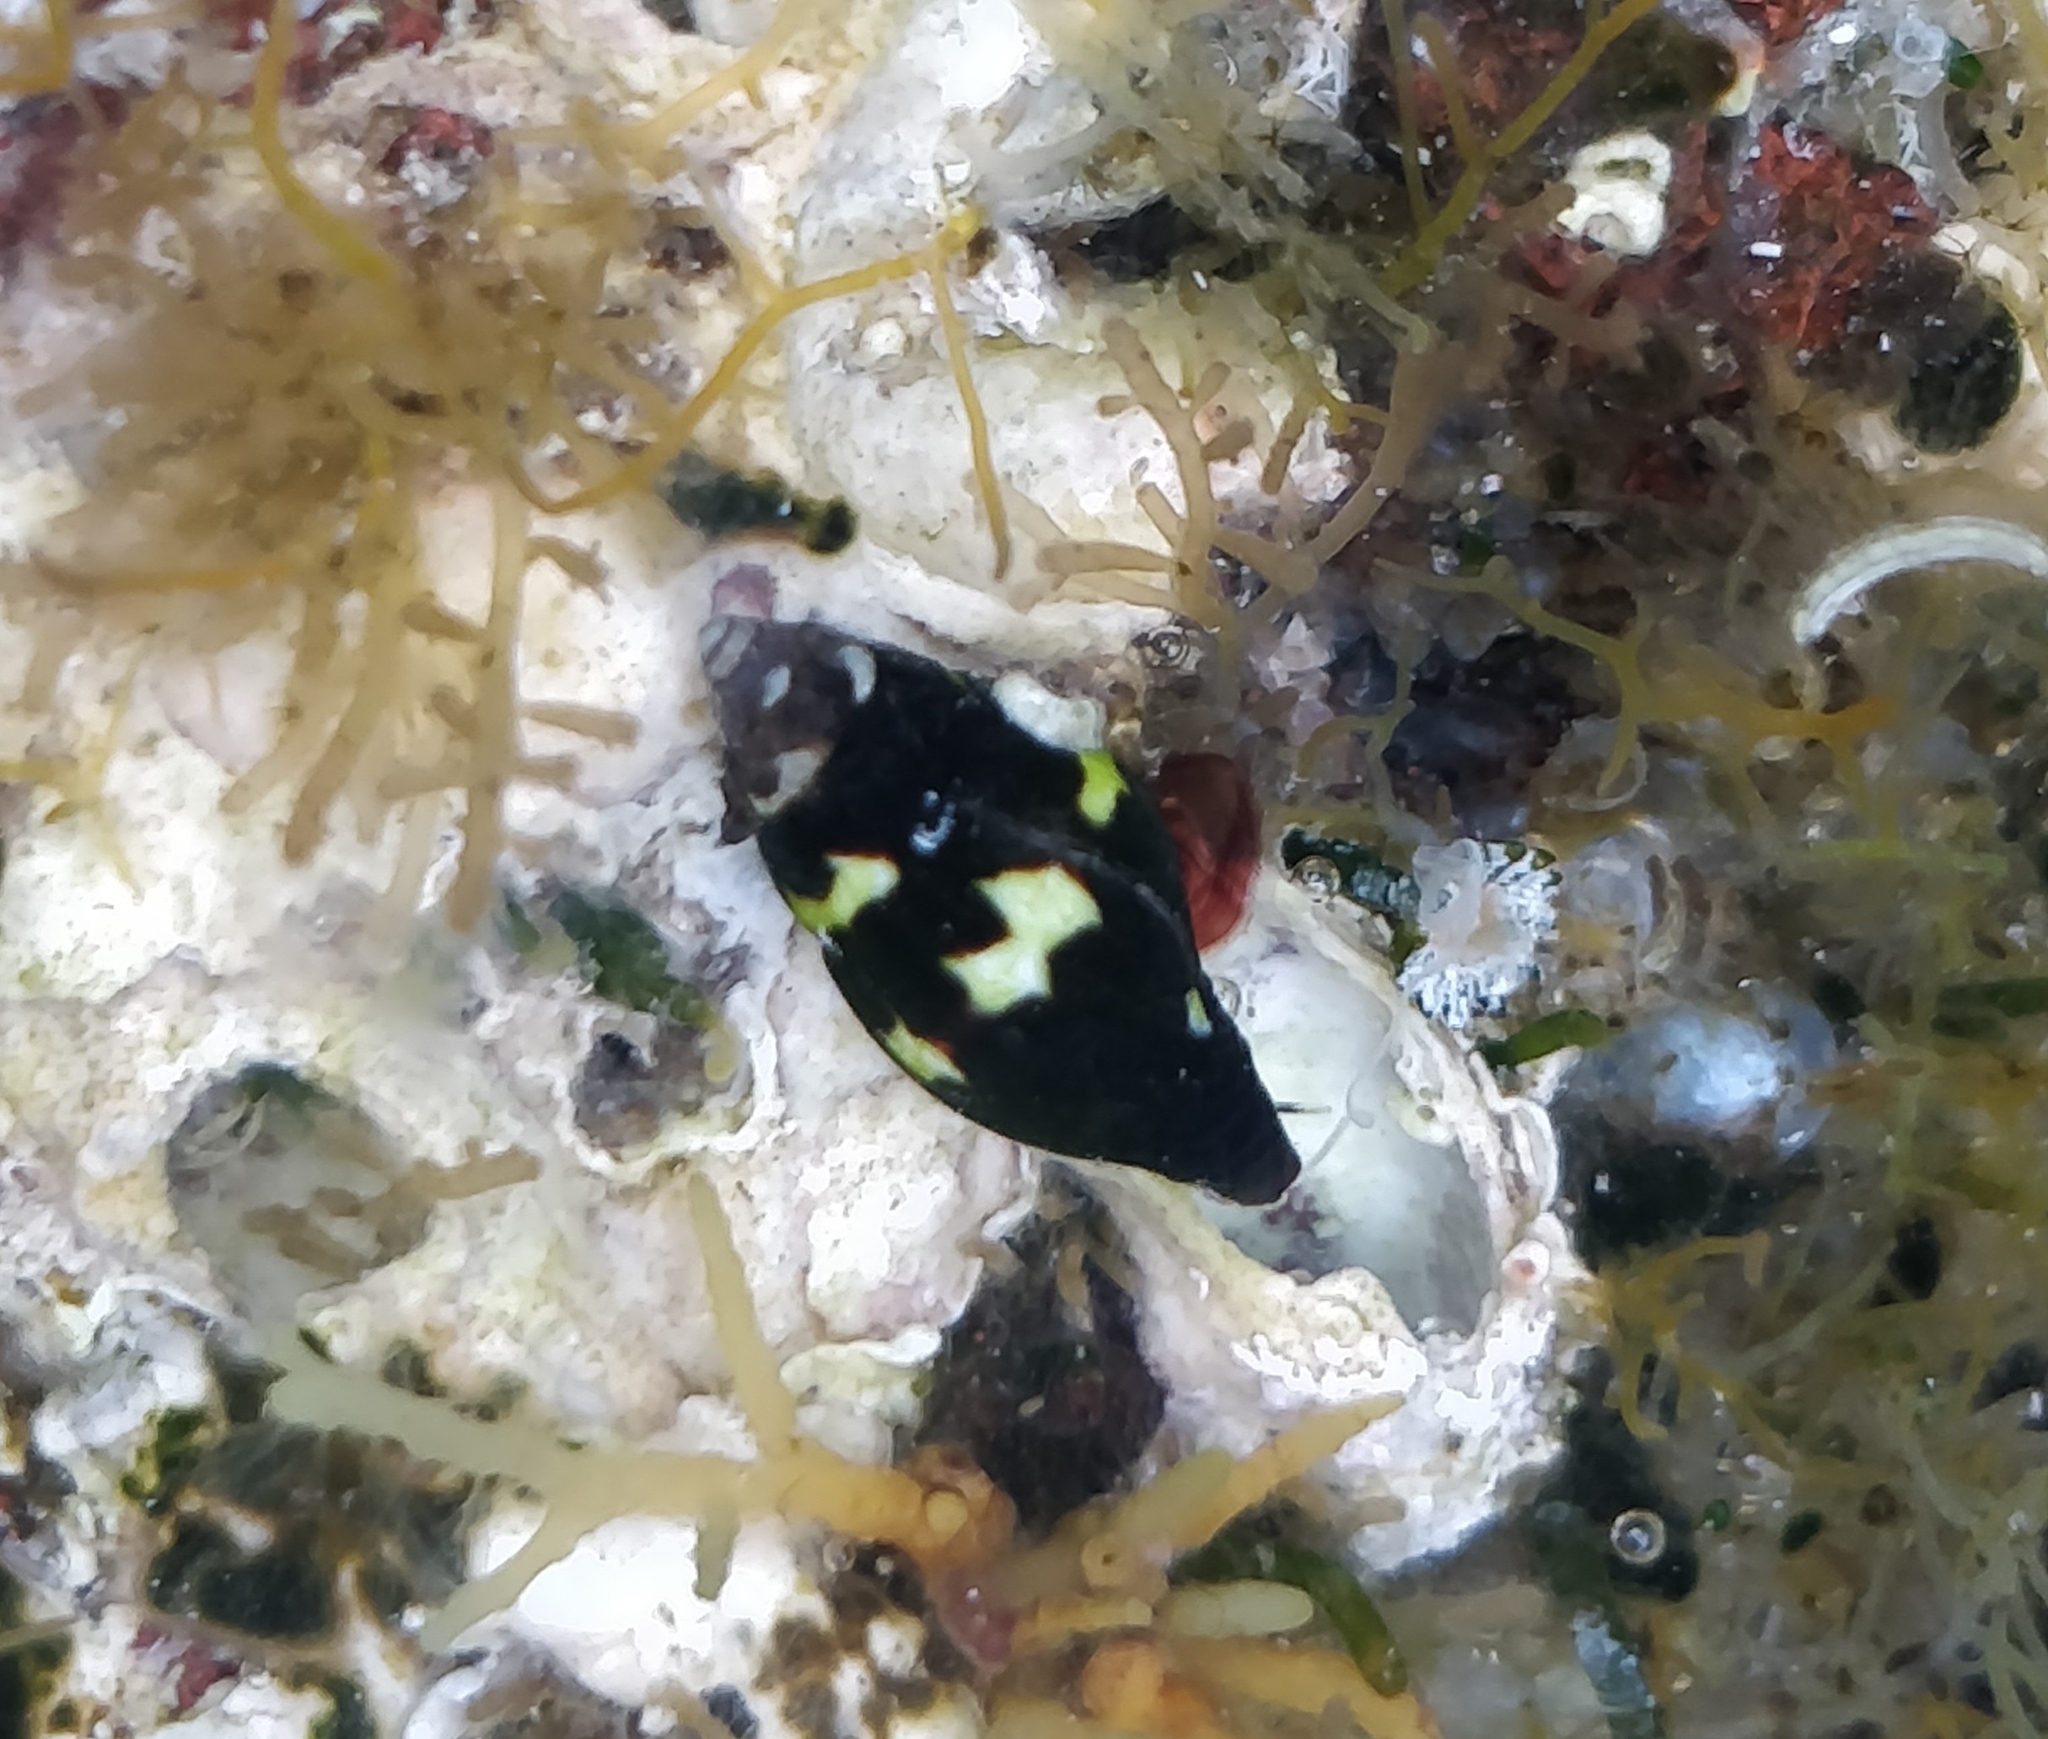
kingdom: Animalia
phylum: Mollusca
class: Gastropoda
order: Neogastropoda
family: Costellariidae
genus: Pusia
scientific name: Pusia zebrina
